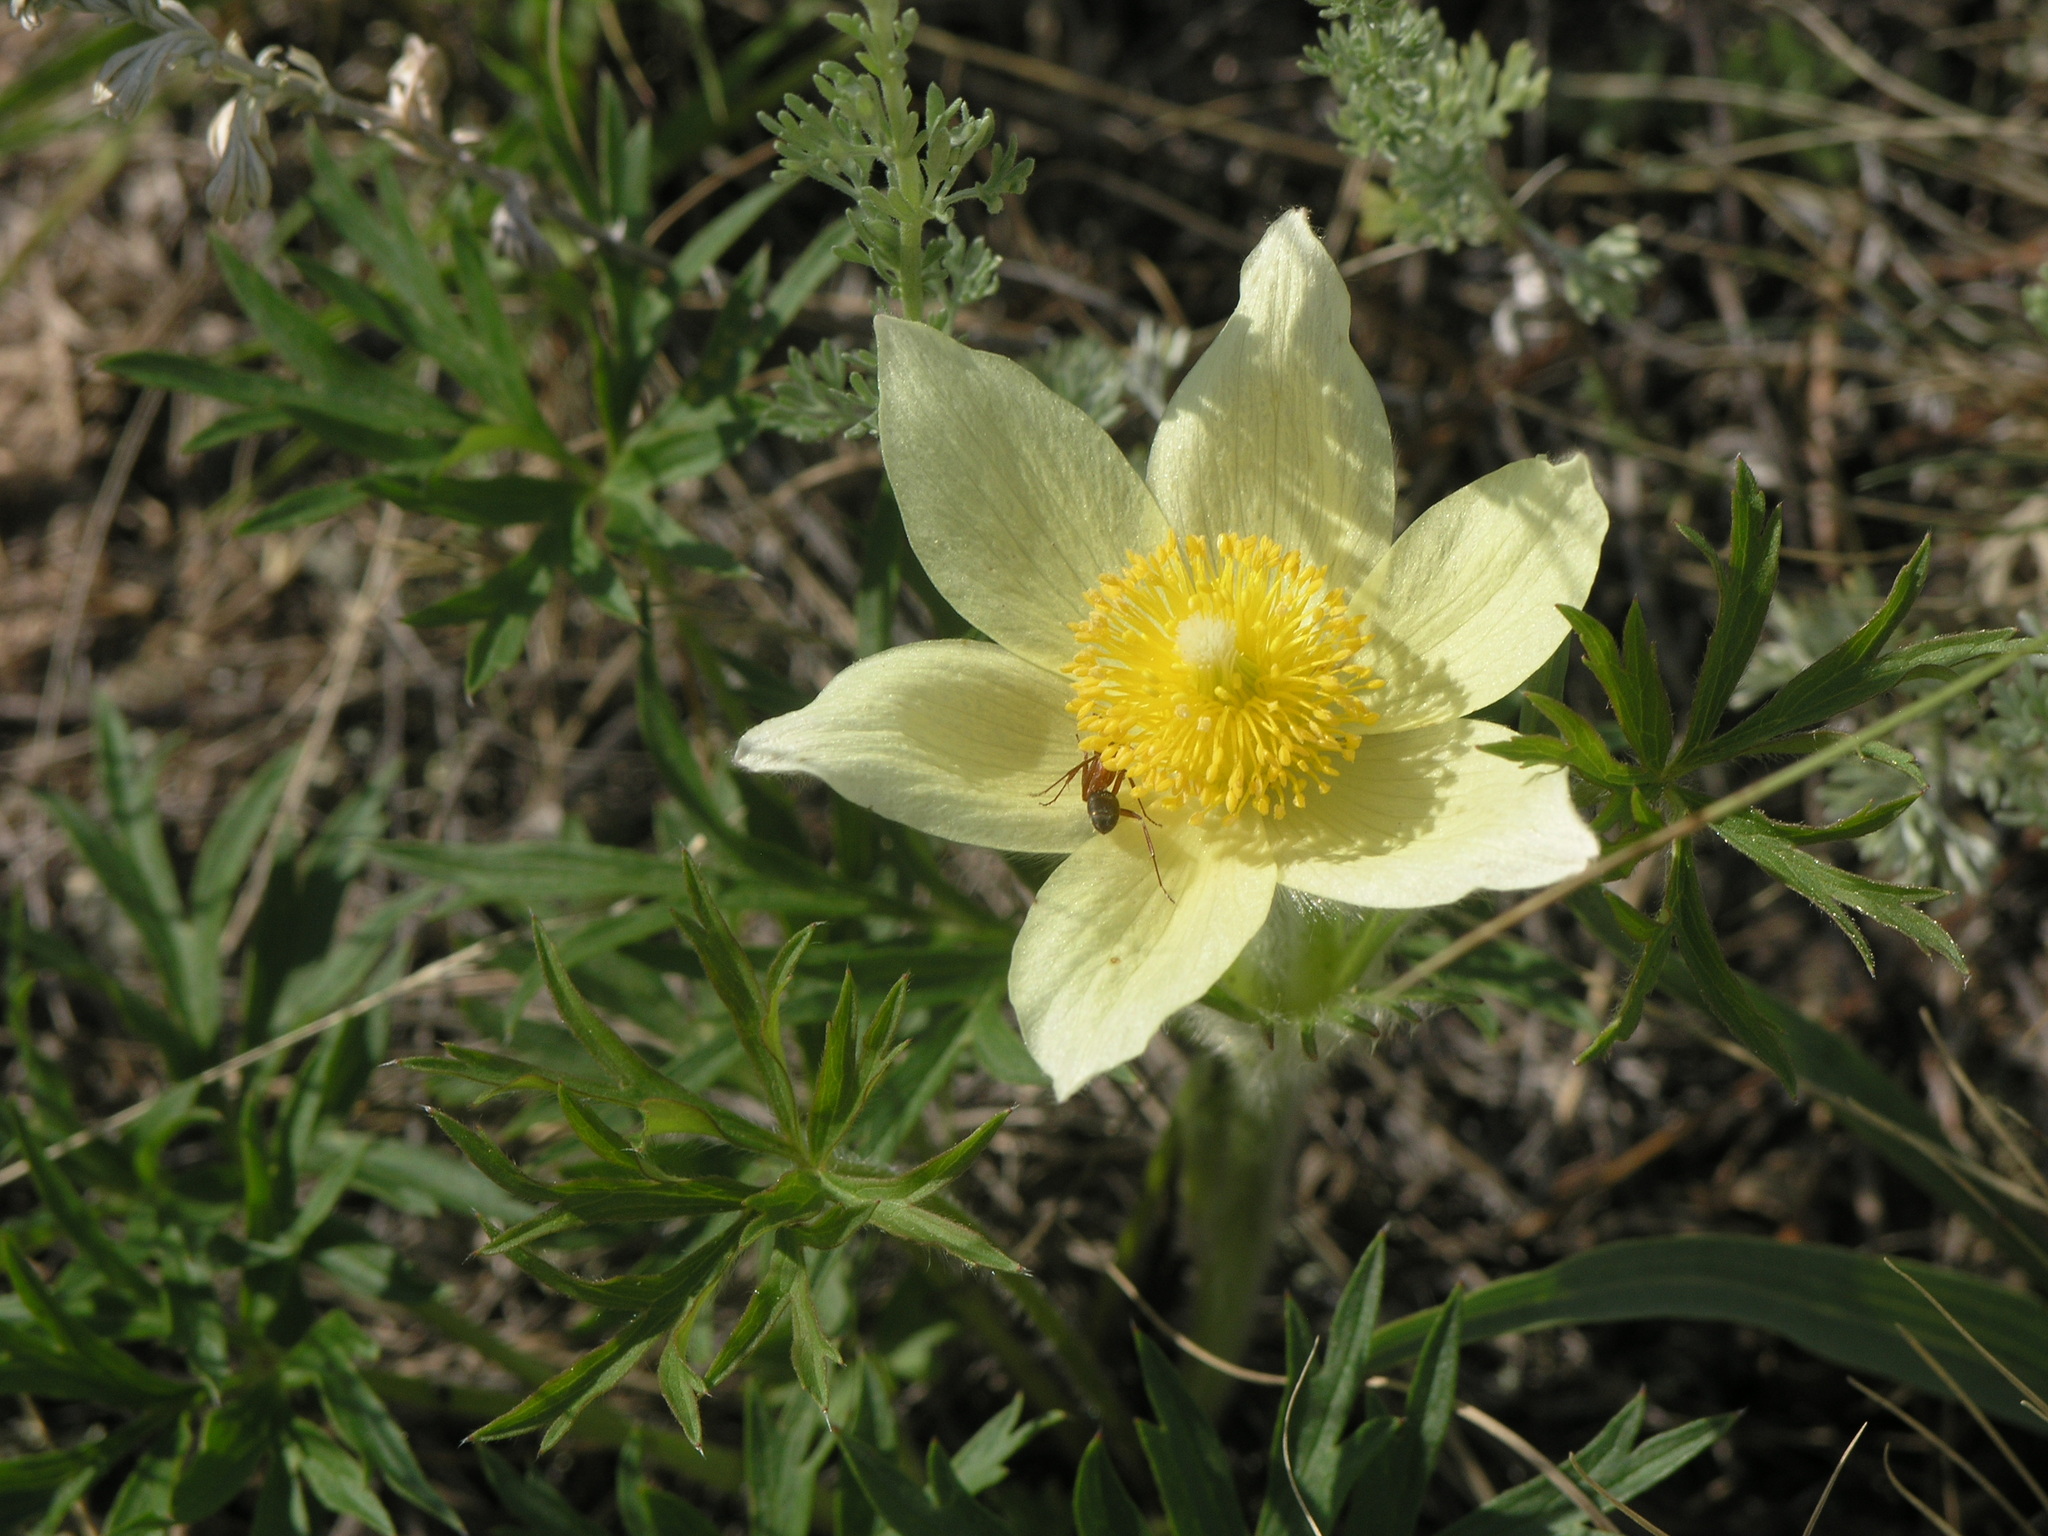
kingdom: Plantae
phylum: Tracheophyta
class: Magnoliopsida
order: Ranunculales
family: Ranunculaceae
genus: Pulsatilla
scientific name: Pulsatilla patens
